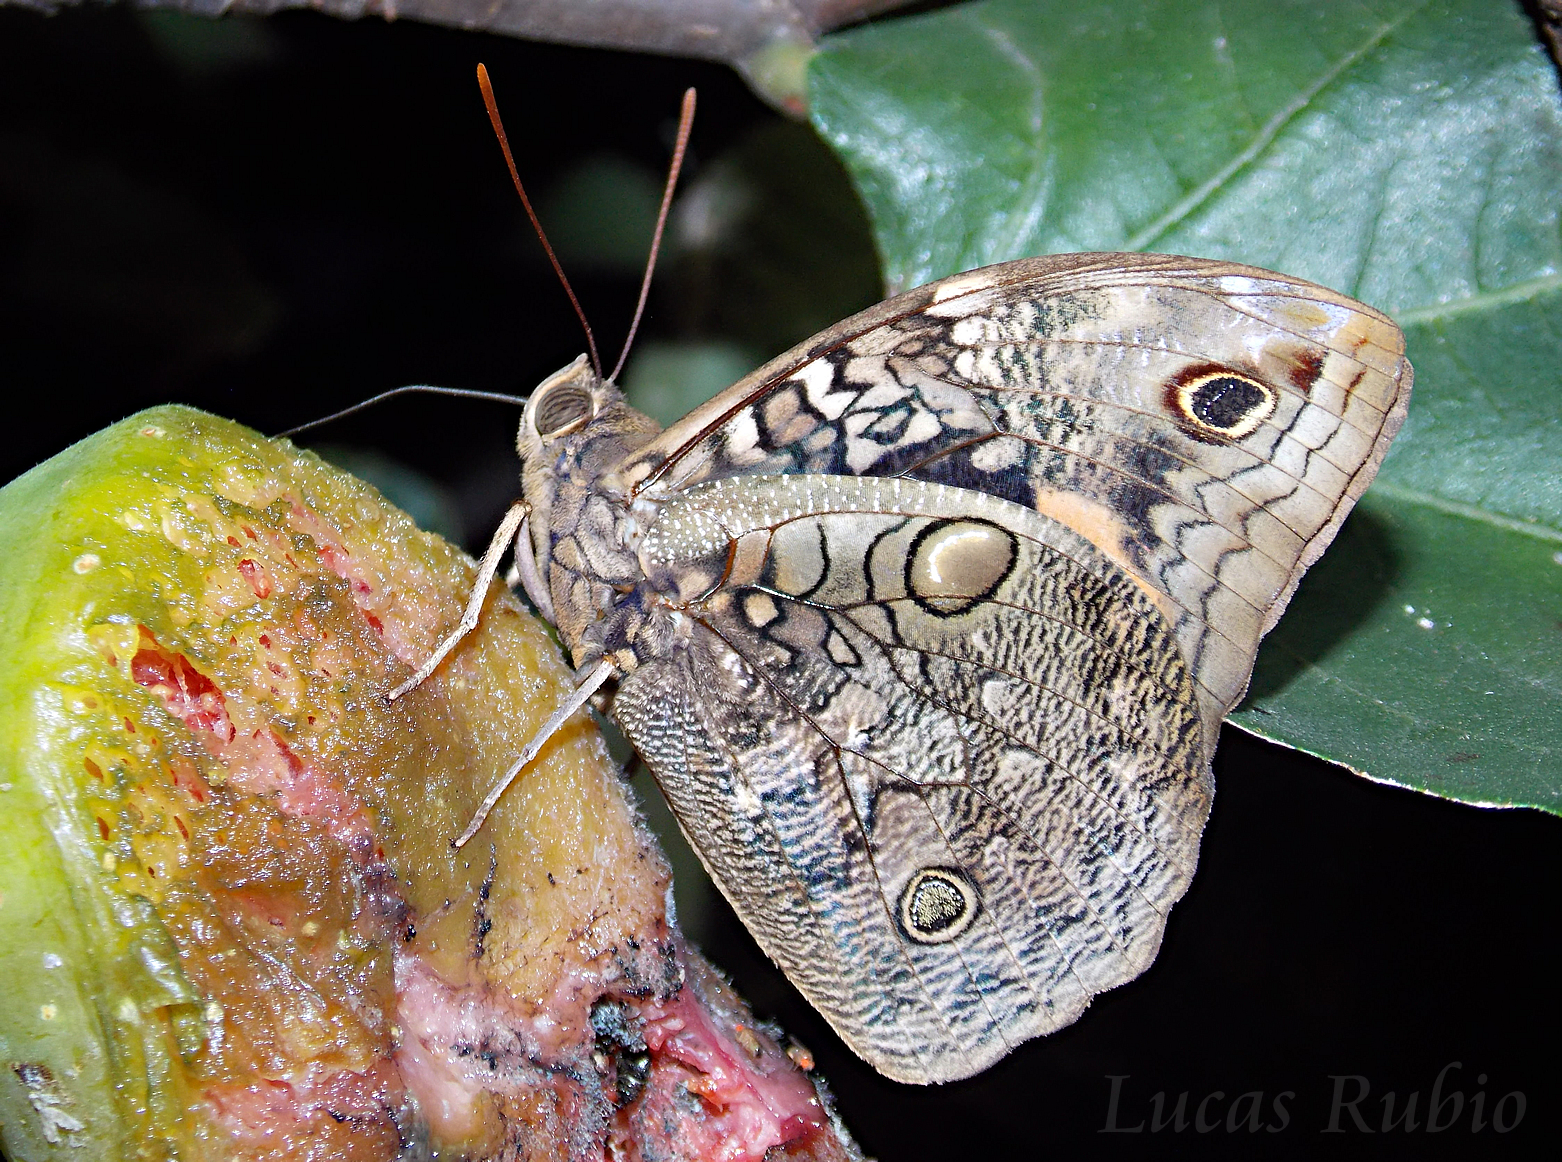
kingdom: Animalia
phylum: Arthropoda
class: Insecta
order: Lepidoptera
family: Nymphalidae
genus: Opsiphanes
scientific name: Opsiphanes invirae
